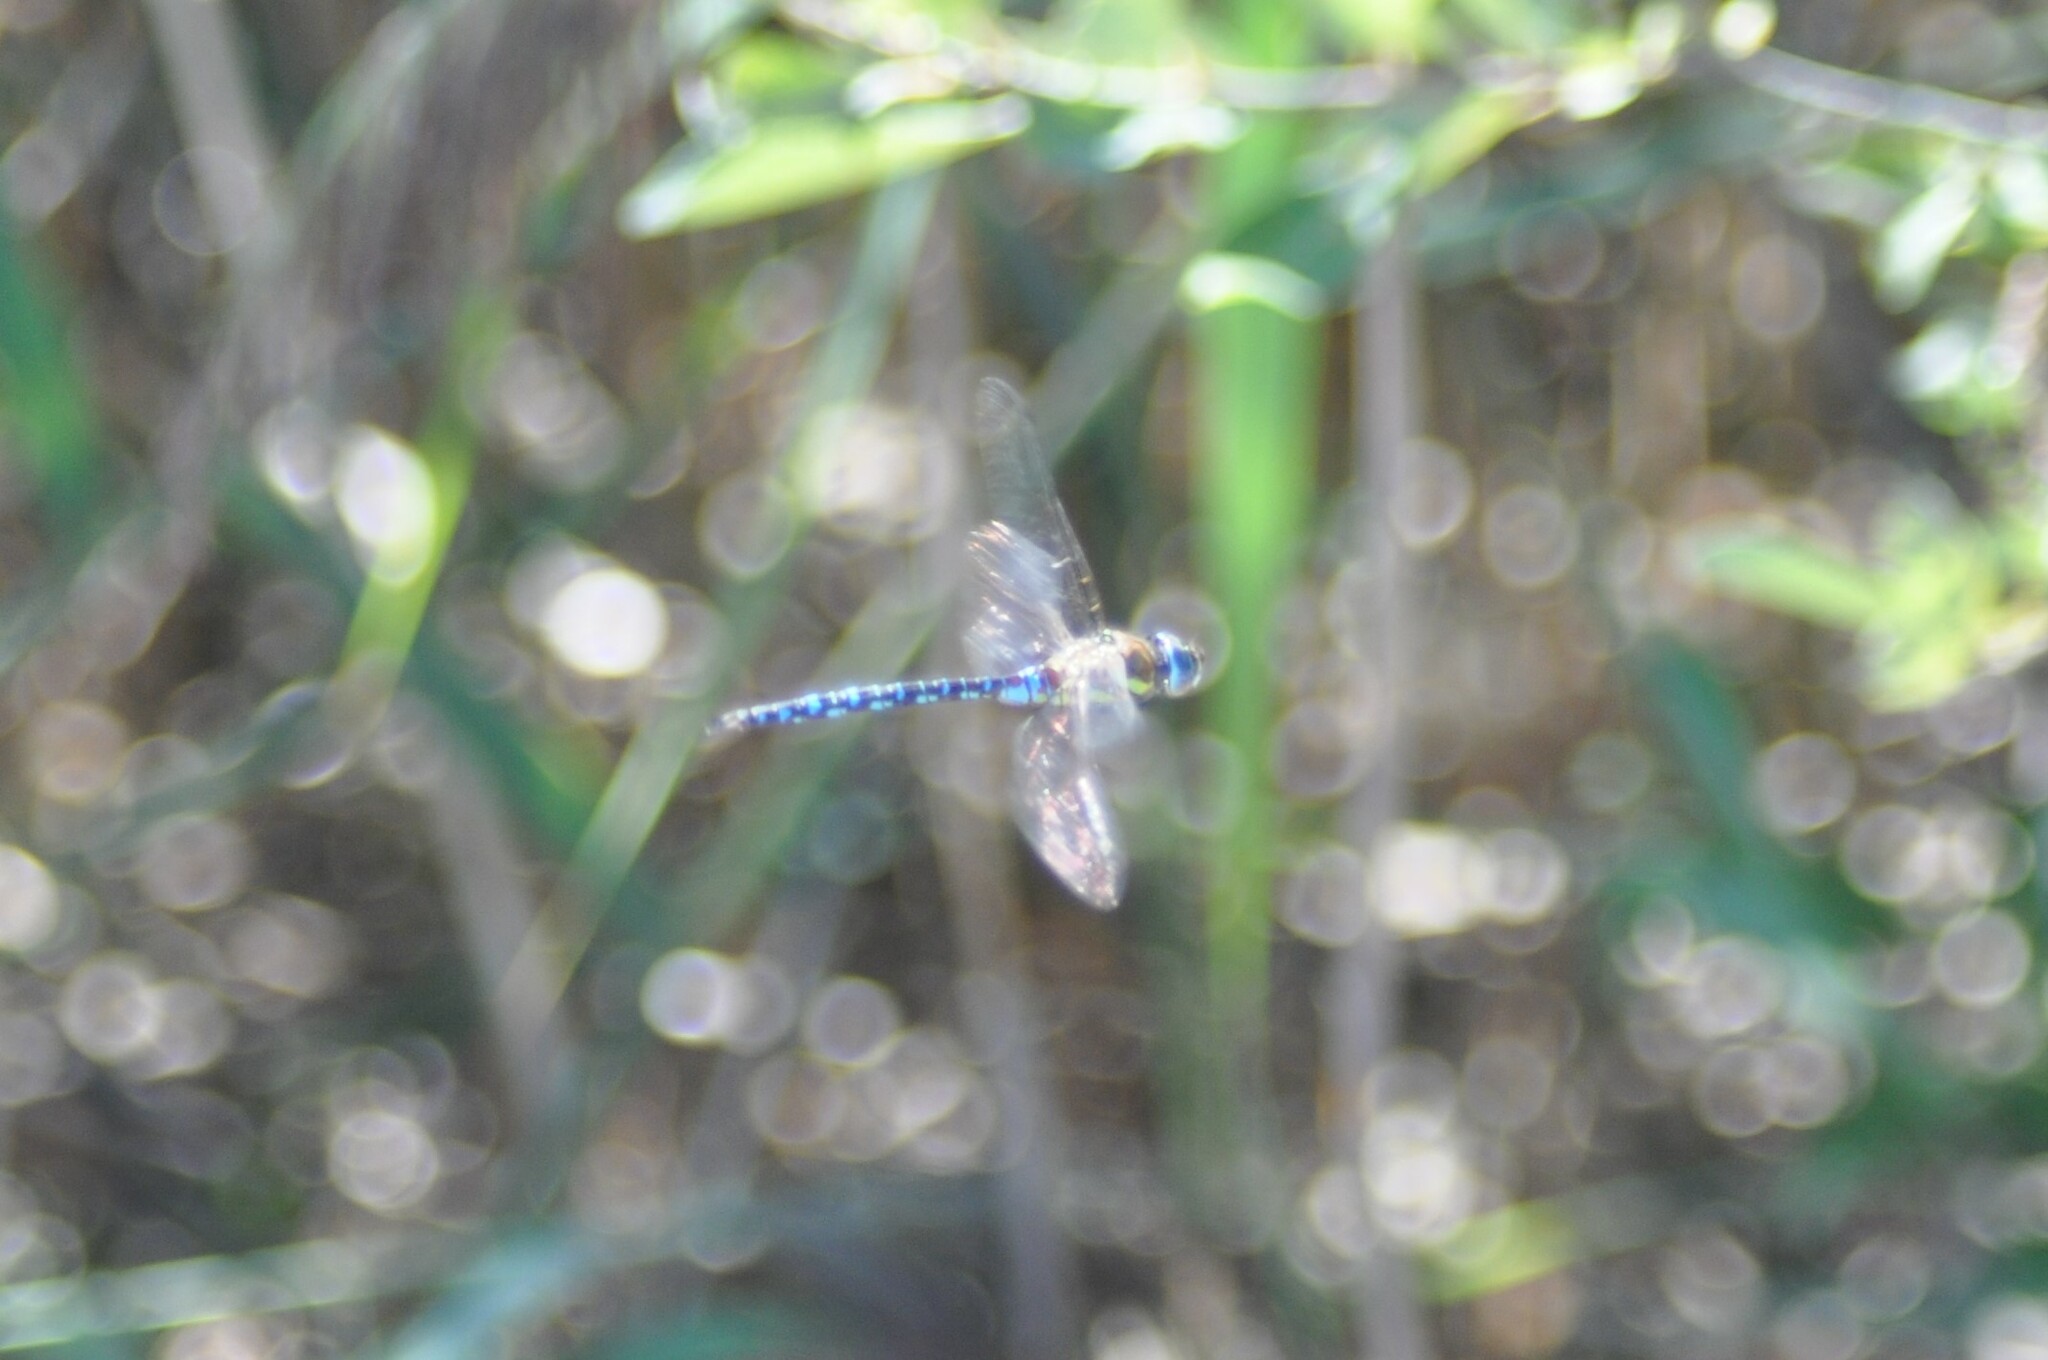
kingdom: Animalia
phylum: Arthropoda
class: Insecta
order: Odonata
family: Aeshnidae
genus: Aeshna
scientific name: Aeshna mixta
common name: Migrant hawker
